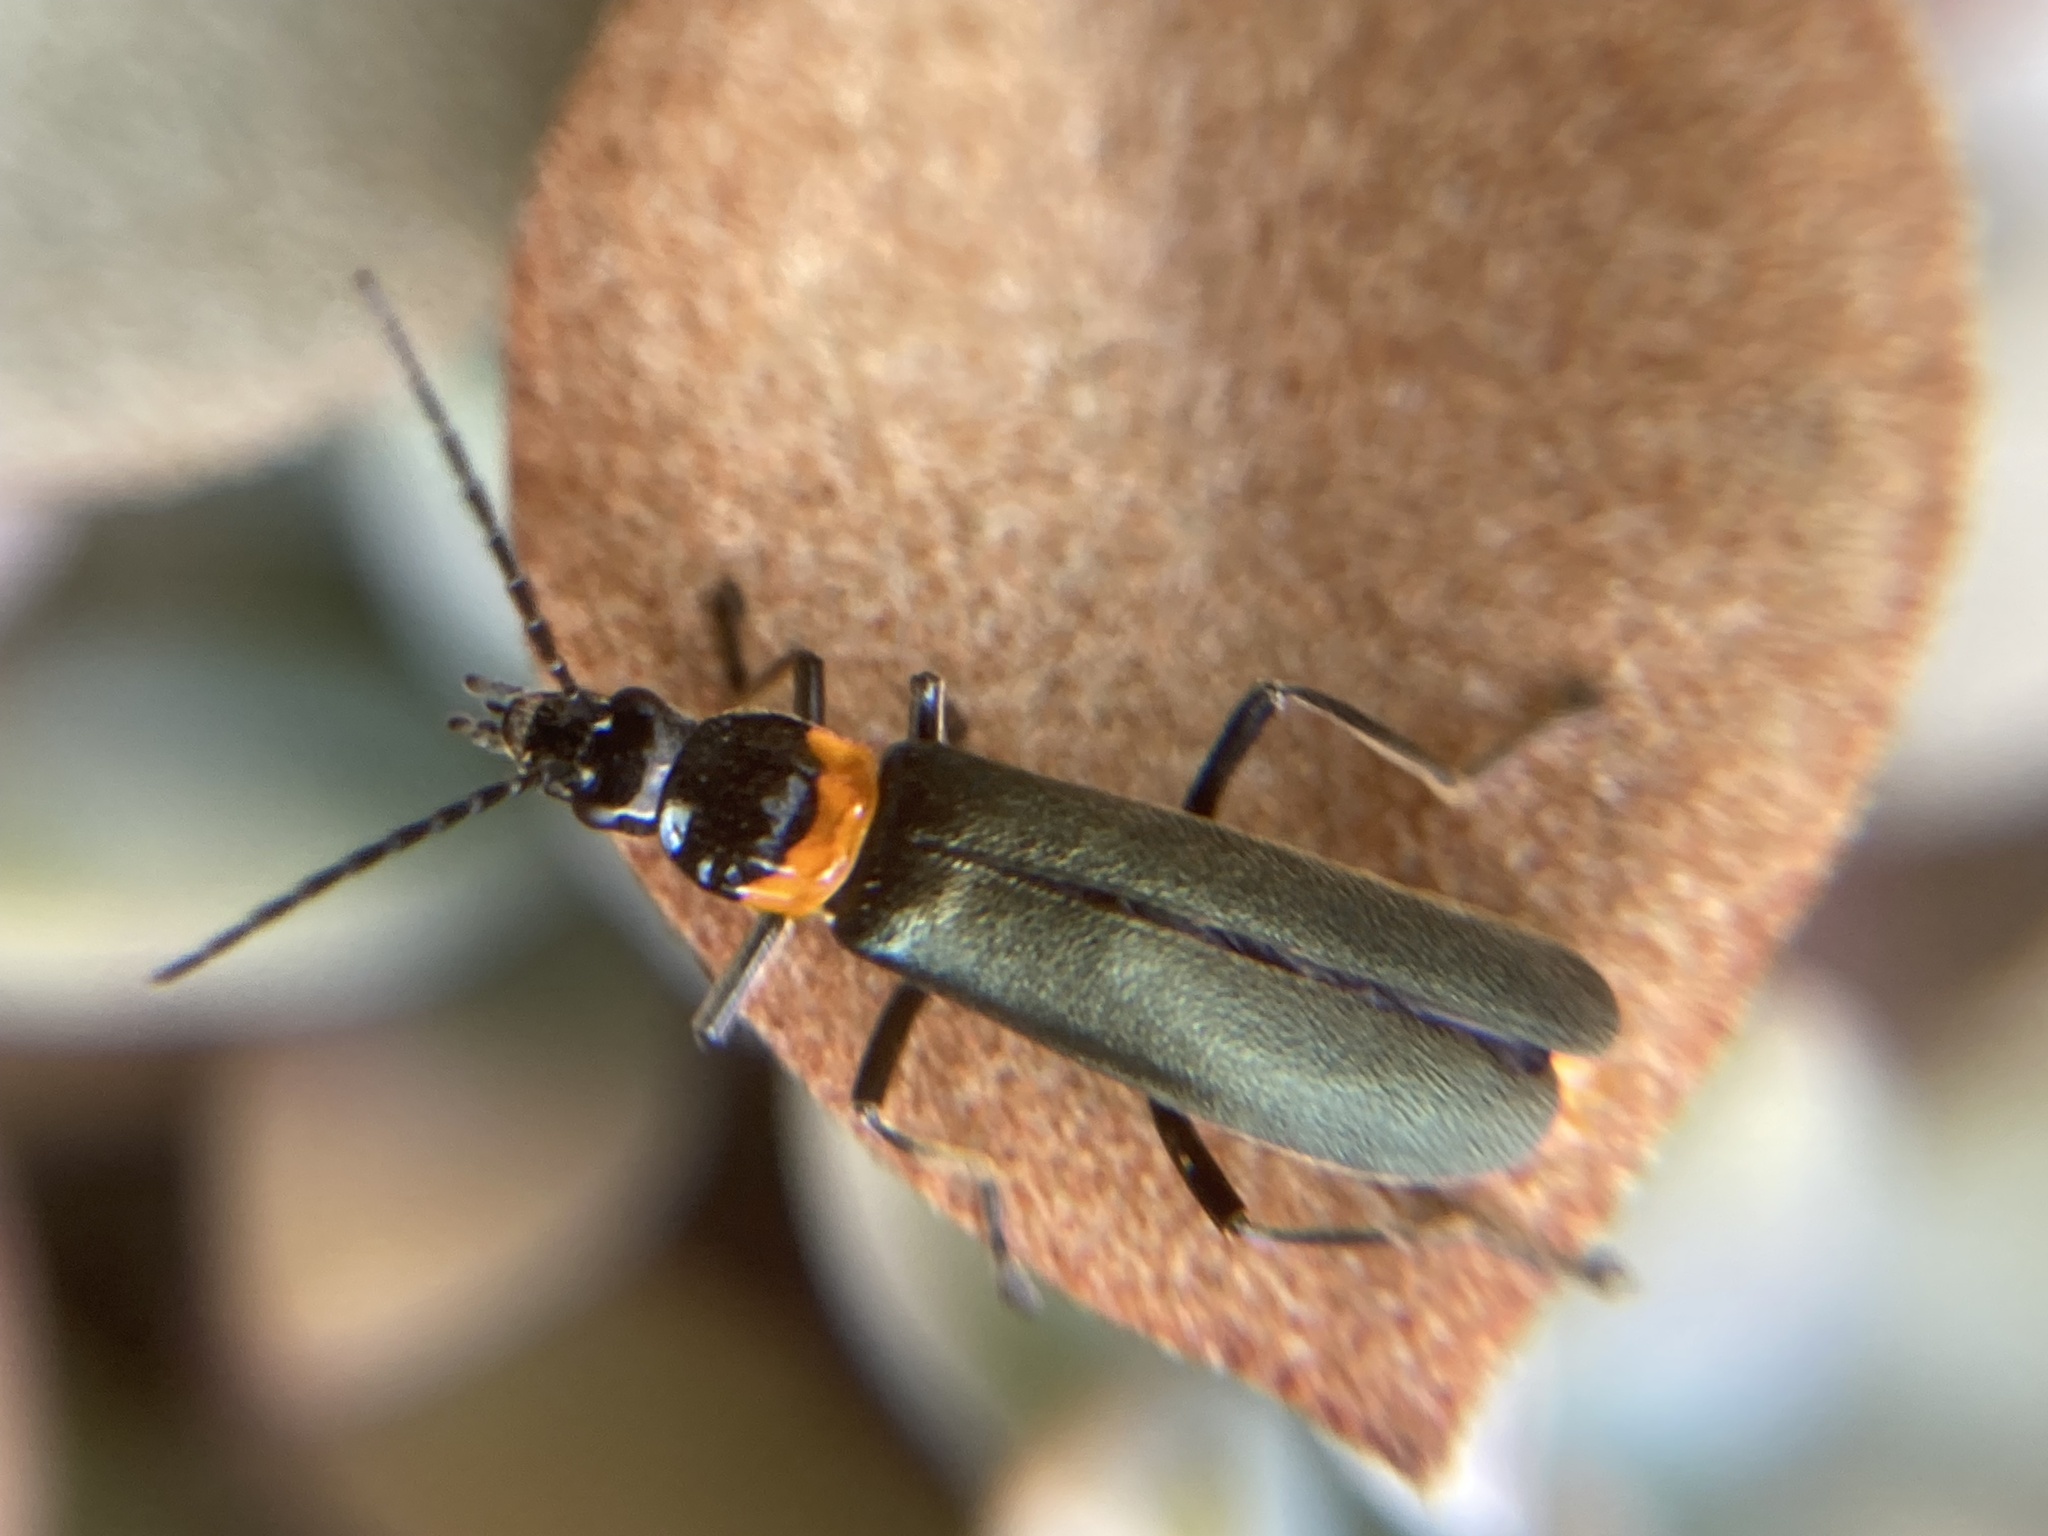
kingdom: Animalia
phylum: Arthropoda
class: Insecta
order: Coleoptera
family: Cantharidae
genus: Chauliognathus
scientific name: Chauliognathus
